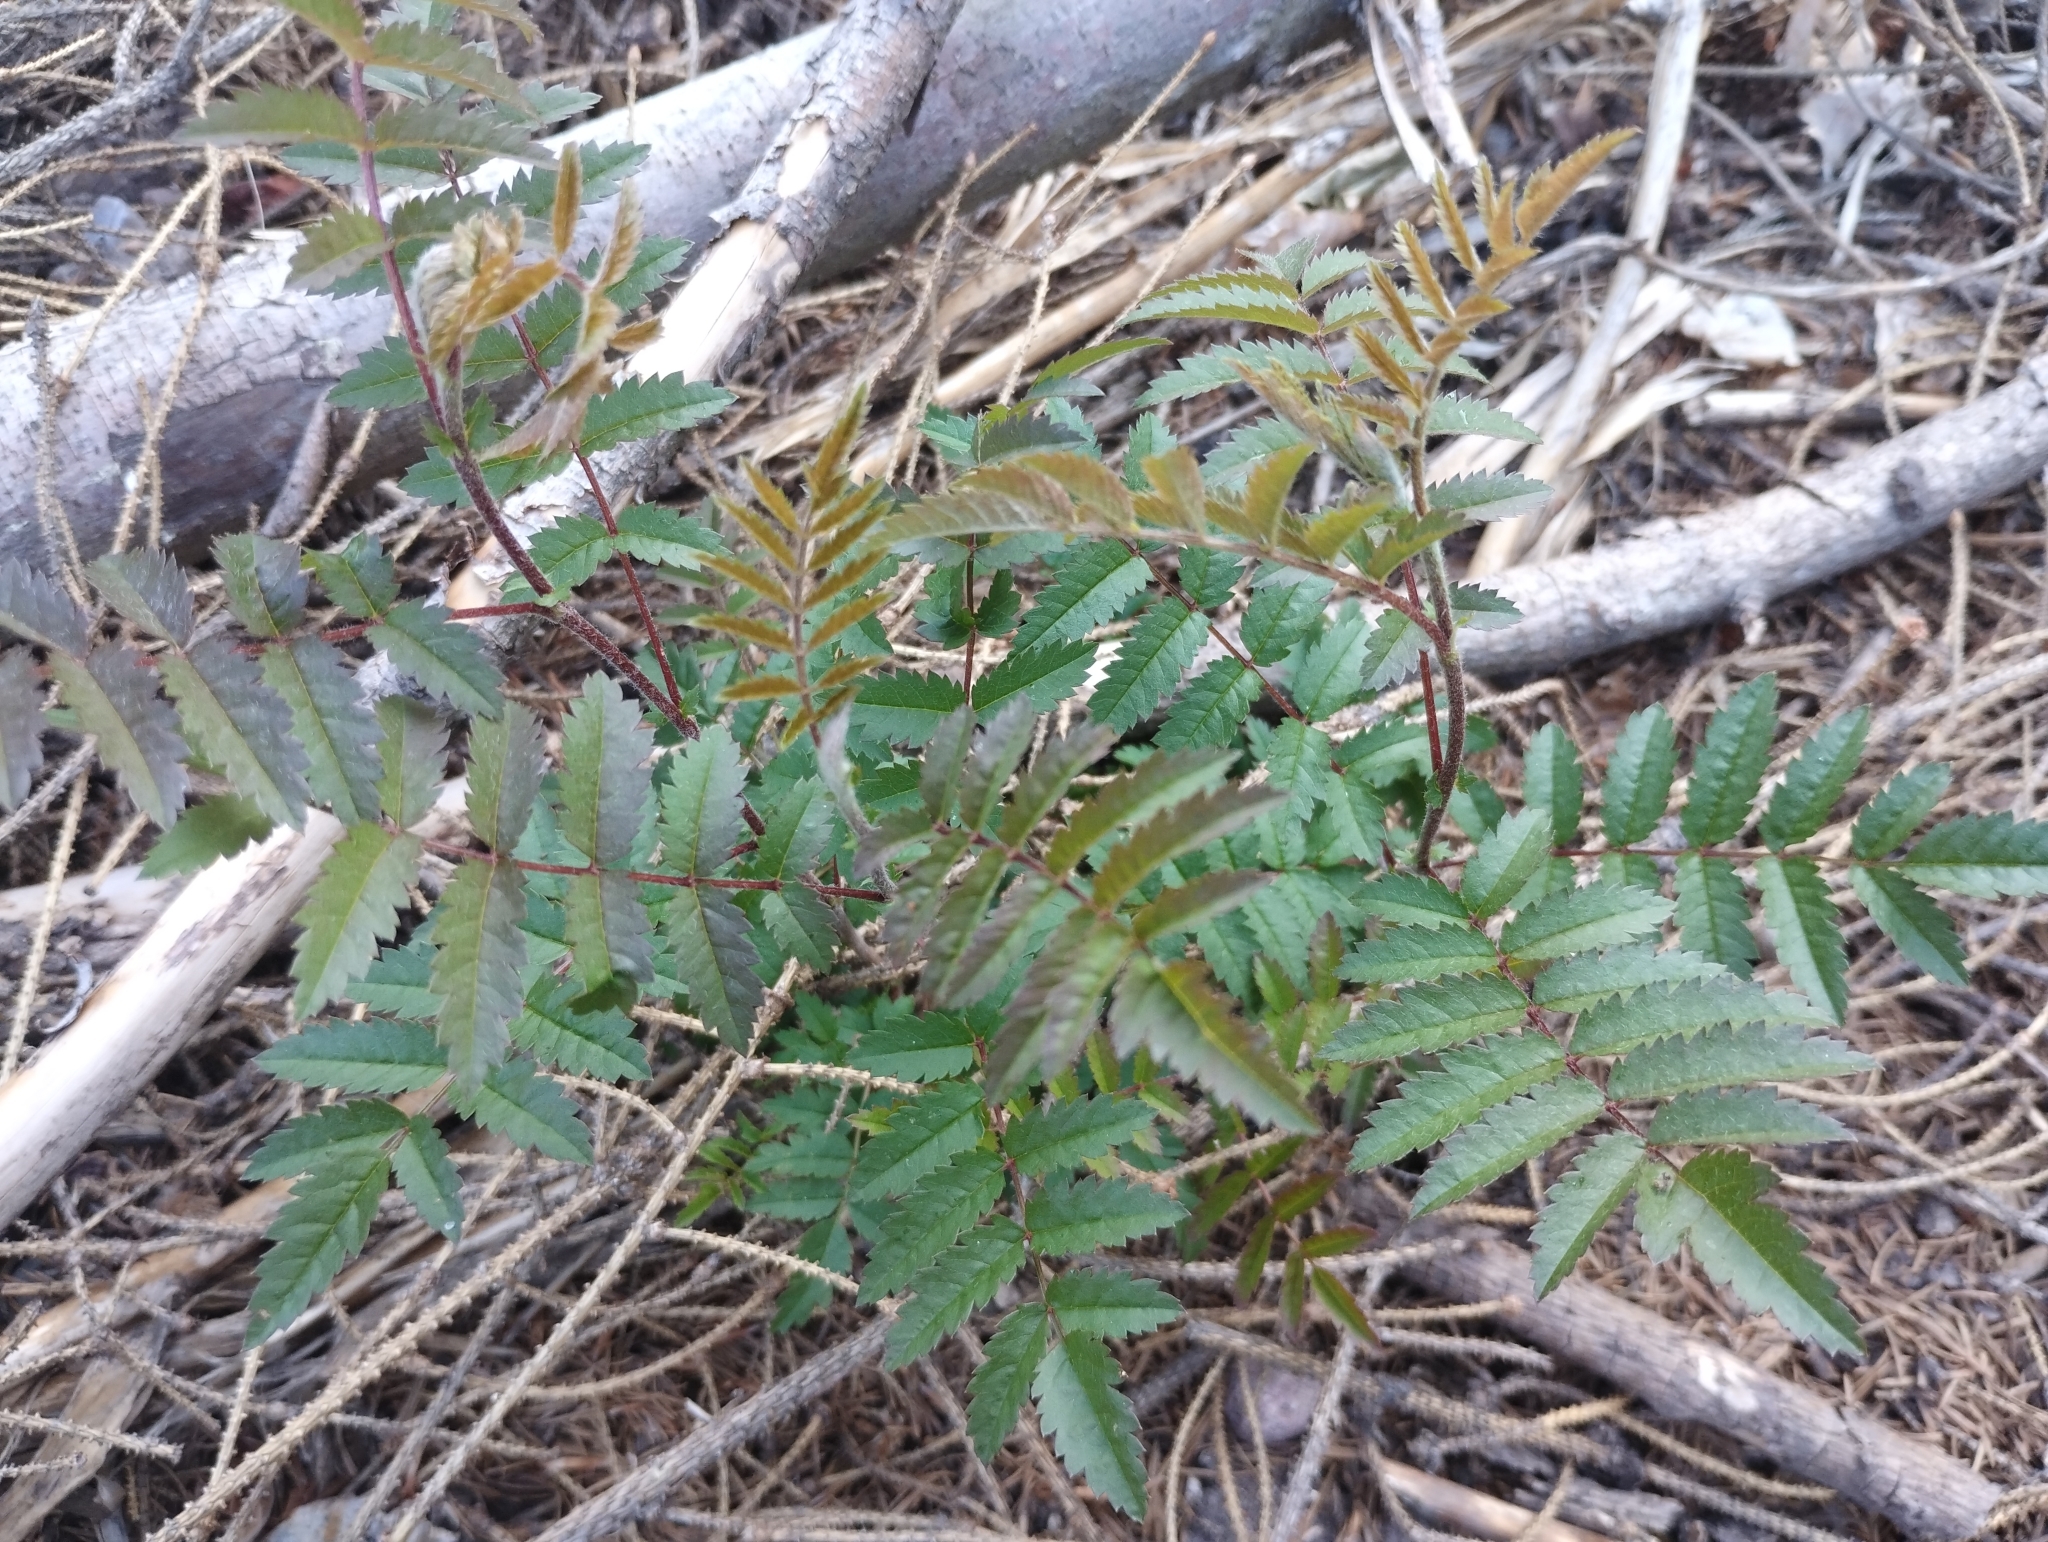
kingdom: Plantae
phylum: Tracheophyta
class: Magnoliopsida
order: Rosales
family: Rosaceae
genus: Sorbus
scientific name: Sorbus aucuparia
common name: Rowan
